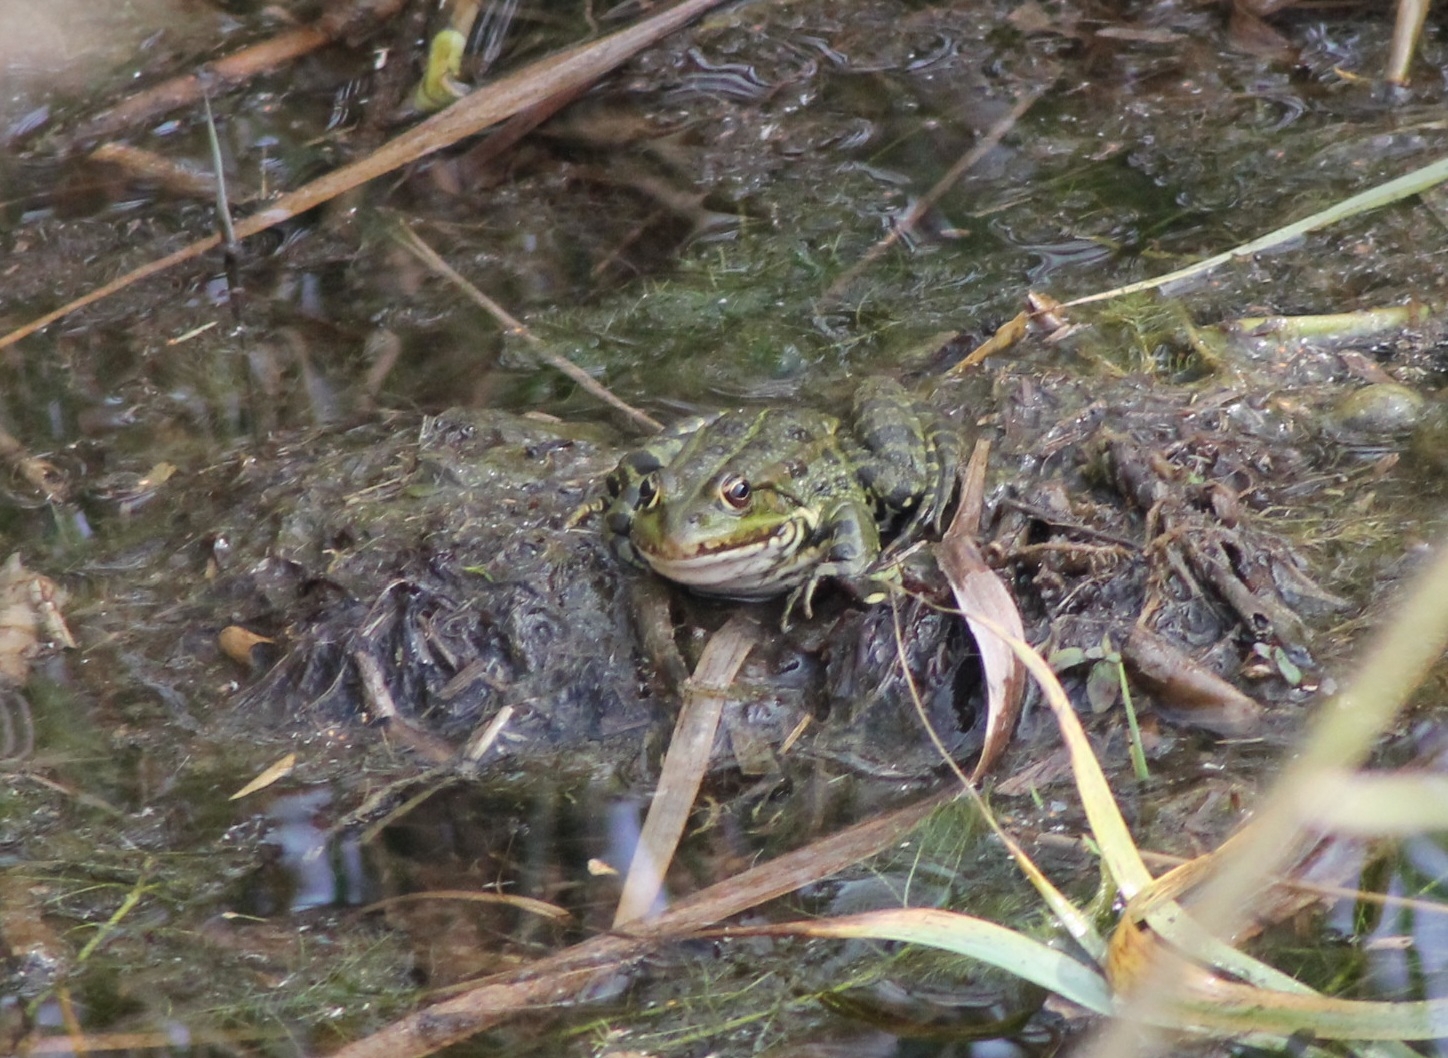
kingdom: Animalia
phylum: Chordata
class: Amphibia
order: Anura
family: Ranidae
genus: Pelophylax
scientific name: Pelophylax
